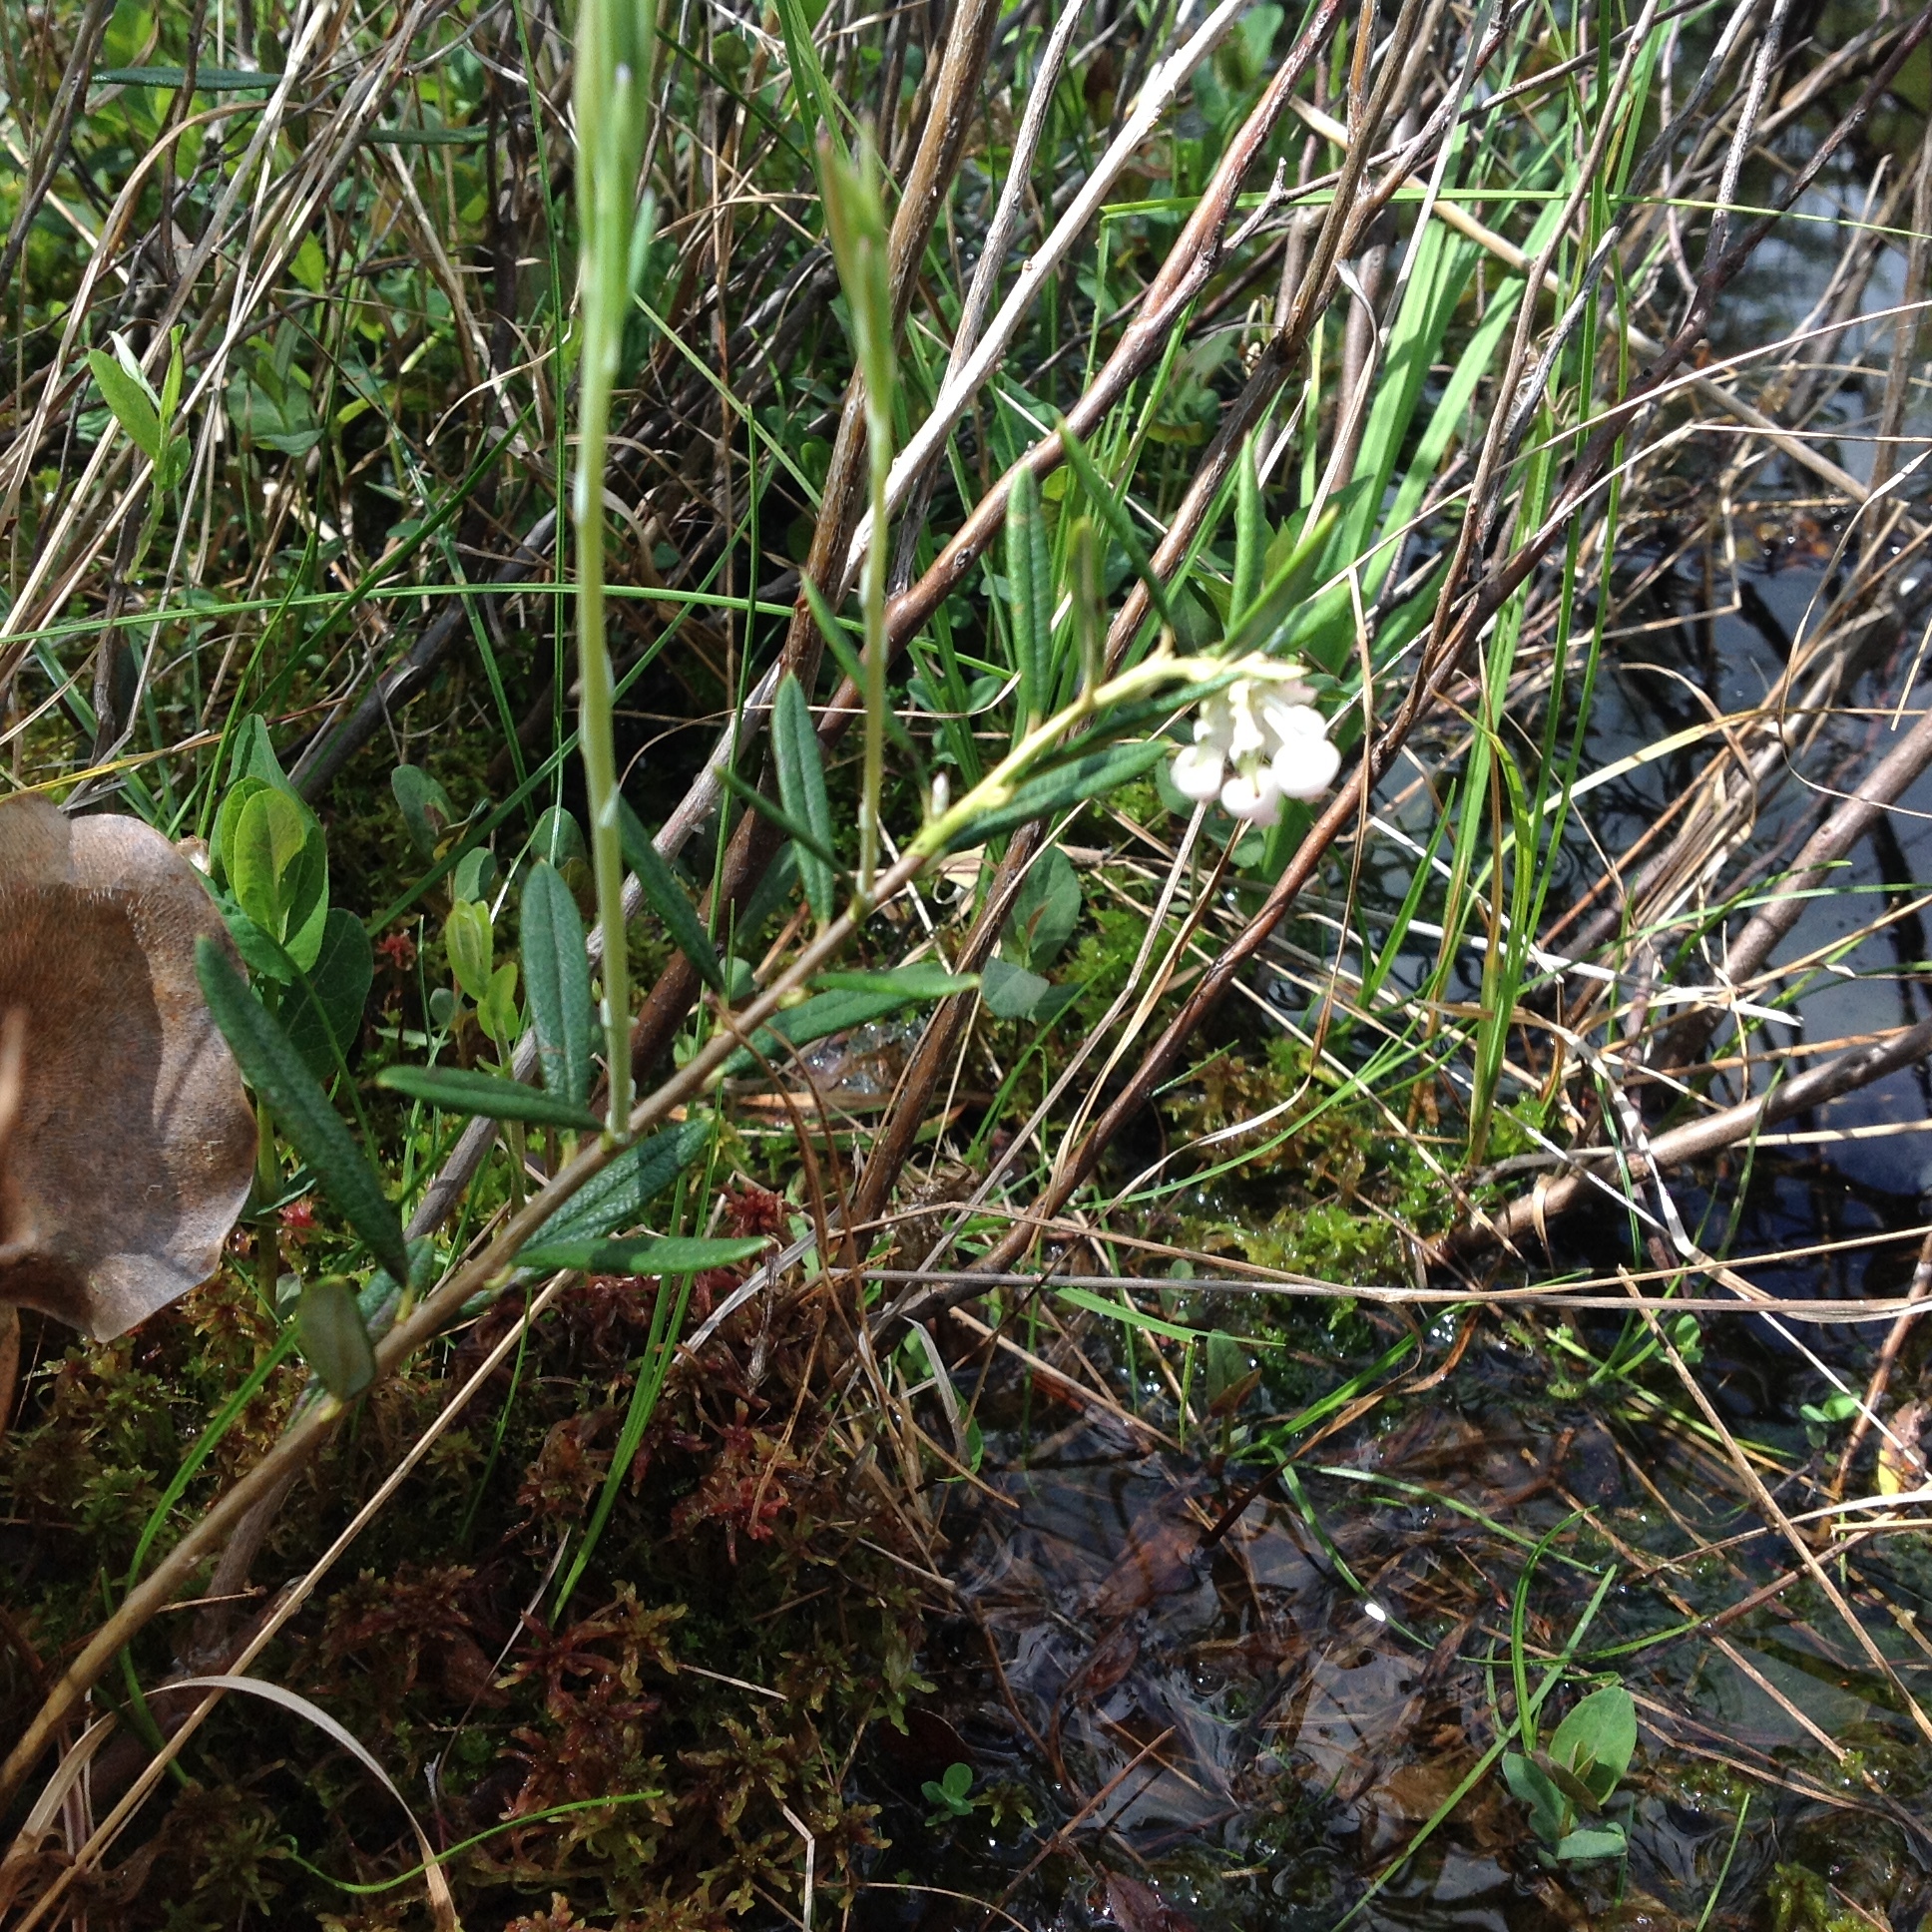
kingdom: Plantae
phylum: Tracheophyta
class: Magnoliopsida
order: Ericales
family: Ericaceae
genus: Andromeda
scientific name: Andromeda polifolia
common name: Bog-rosemary
